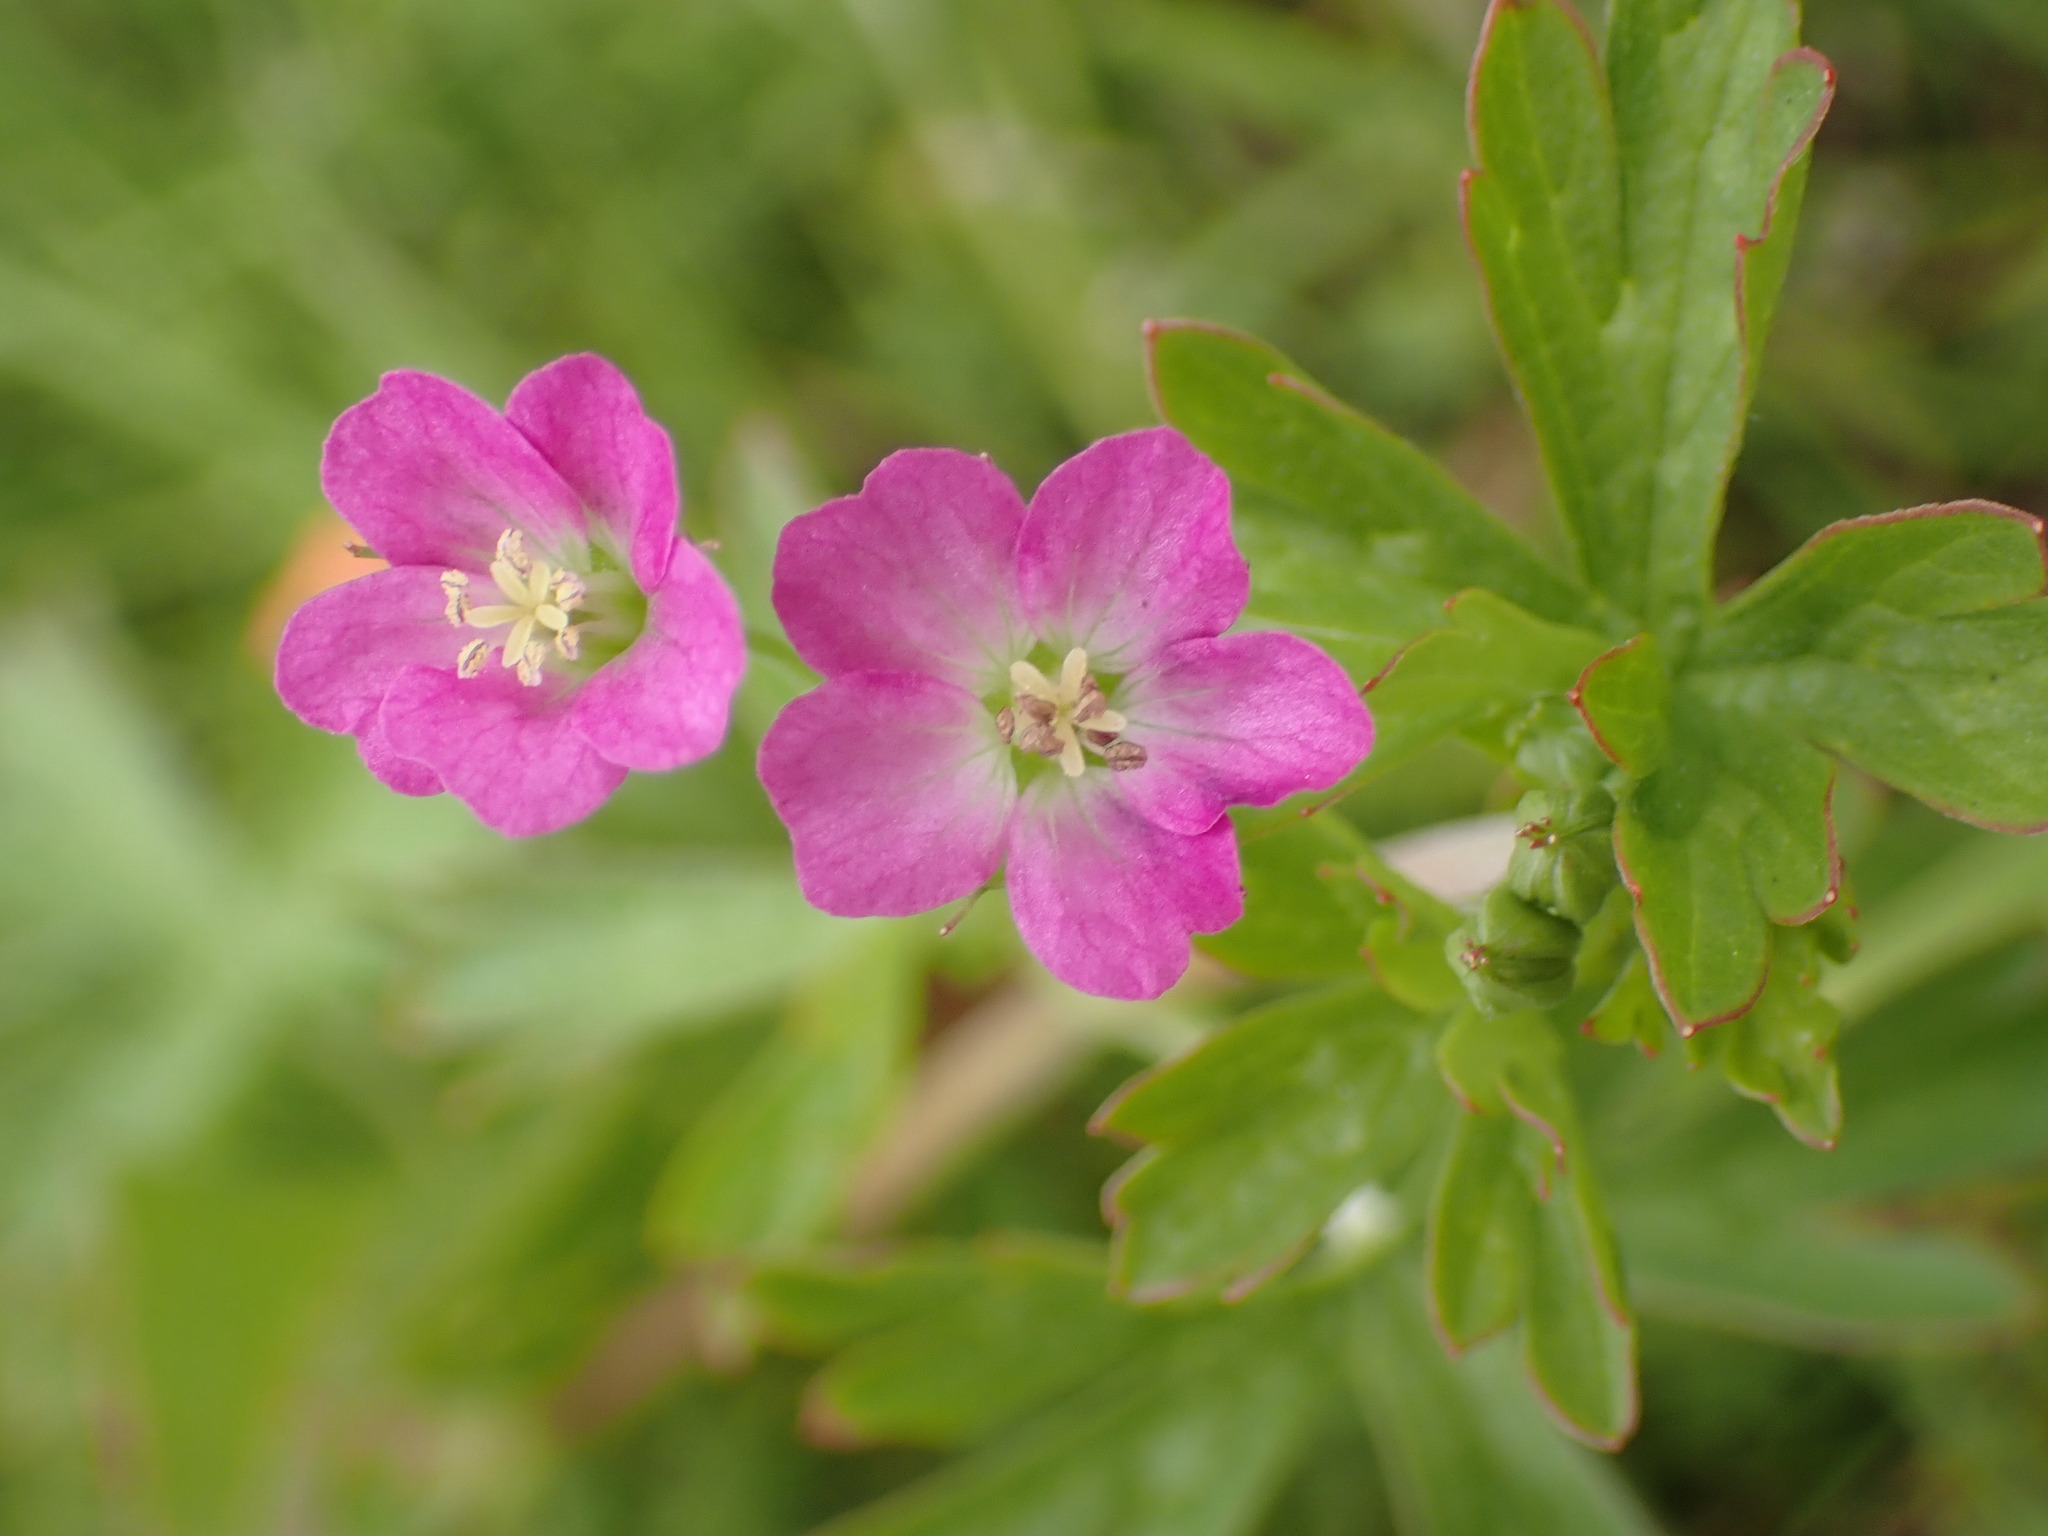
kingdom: Plantae
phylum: Tracheophyta
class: Magnoliopsida
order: Geraniales
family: Geraniaceae
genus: Geranium
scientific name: Geranium core-core
